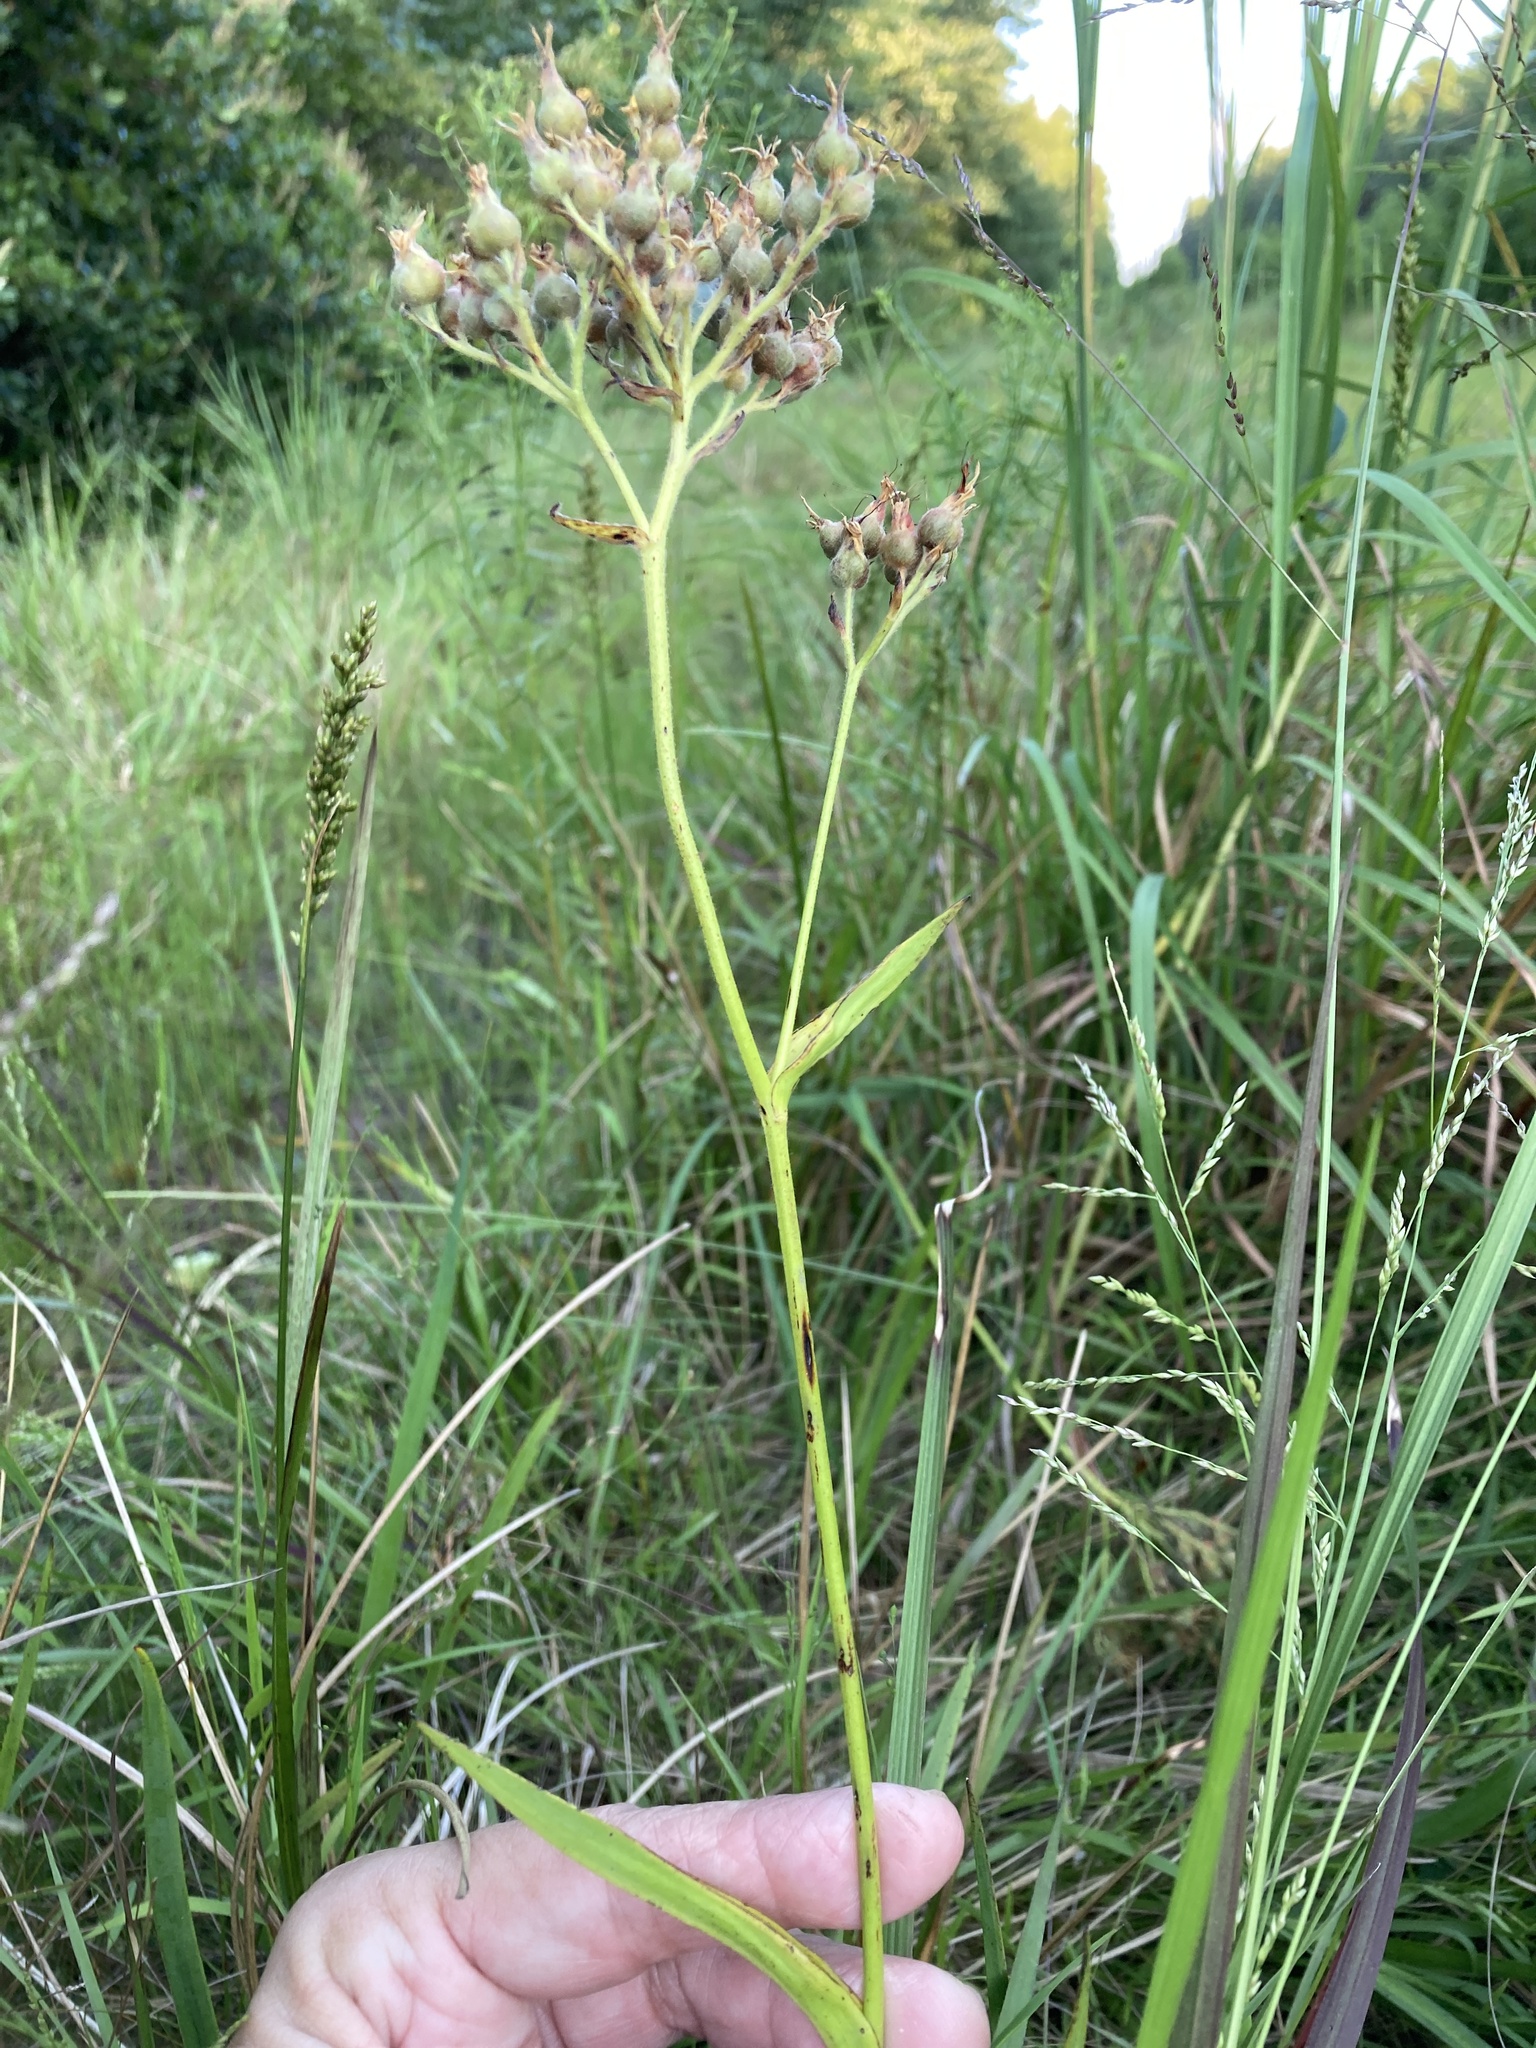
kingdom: Plantae
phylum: Tracheophyta
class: Liliopsida
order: Commelinales
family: Haemodoraceae
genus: Lachnanthes
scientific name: Lachnanthes caroliana
